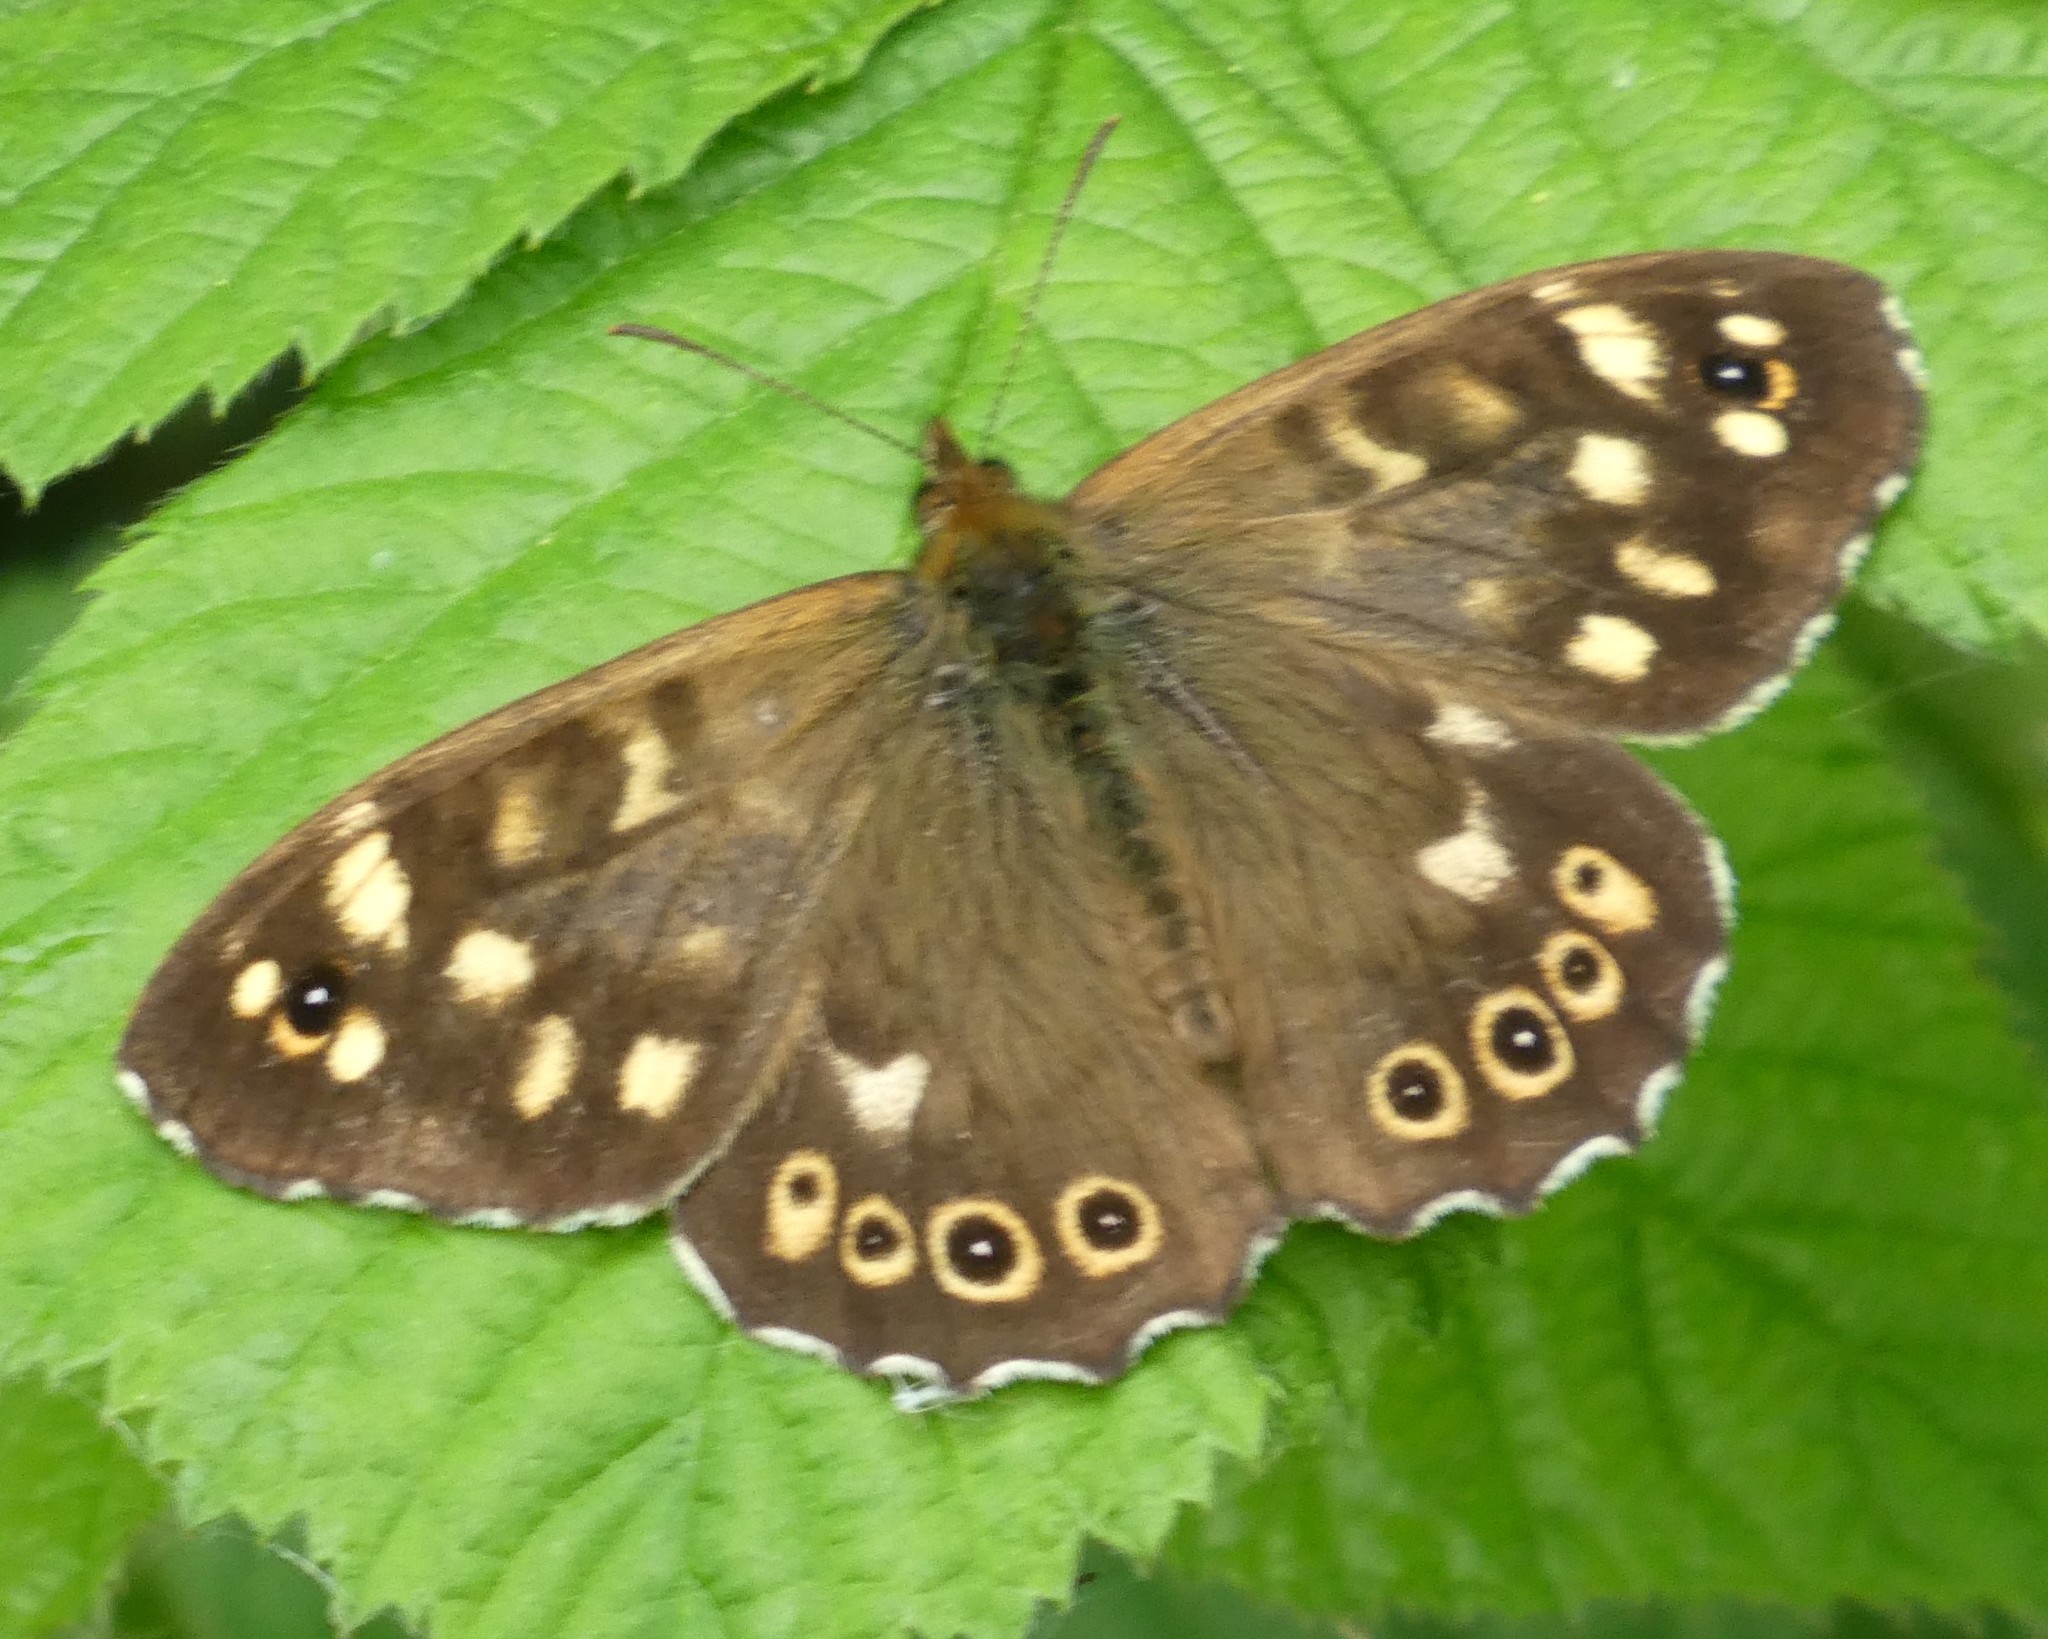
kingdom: Animalia
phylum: Arthropoda
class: Insecta
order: Lepidoptera
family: Nymphalidae
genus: Pararge
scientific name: Pararge aegeria
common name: Speckled wood
